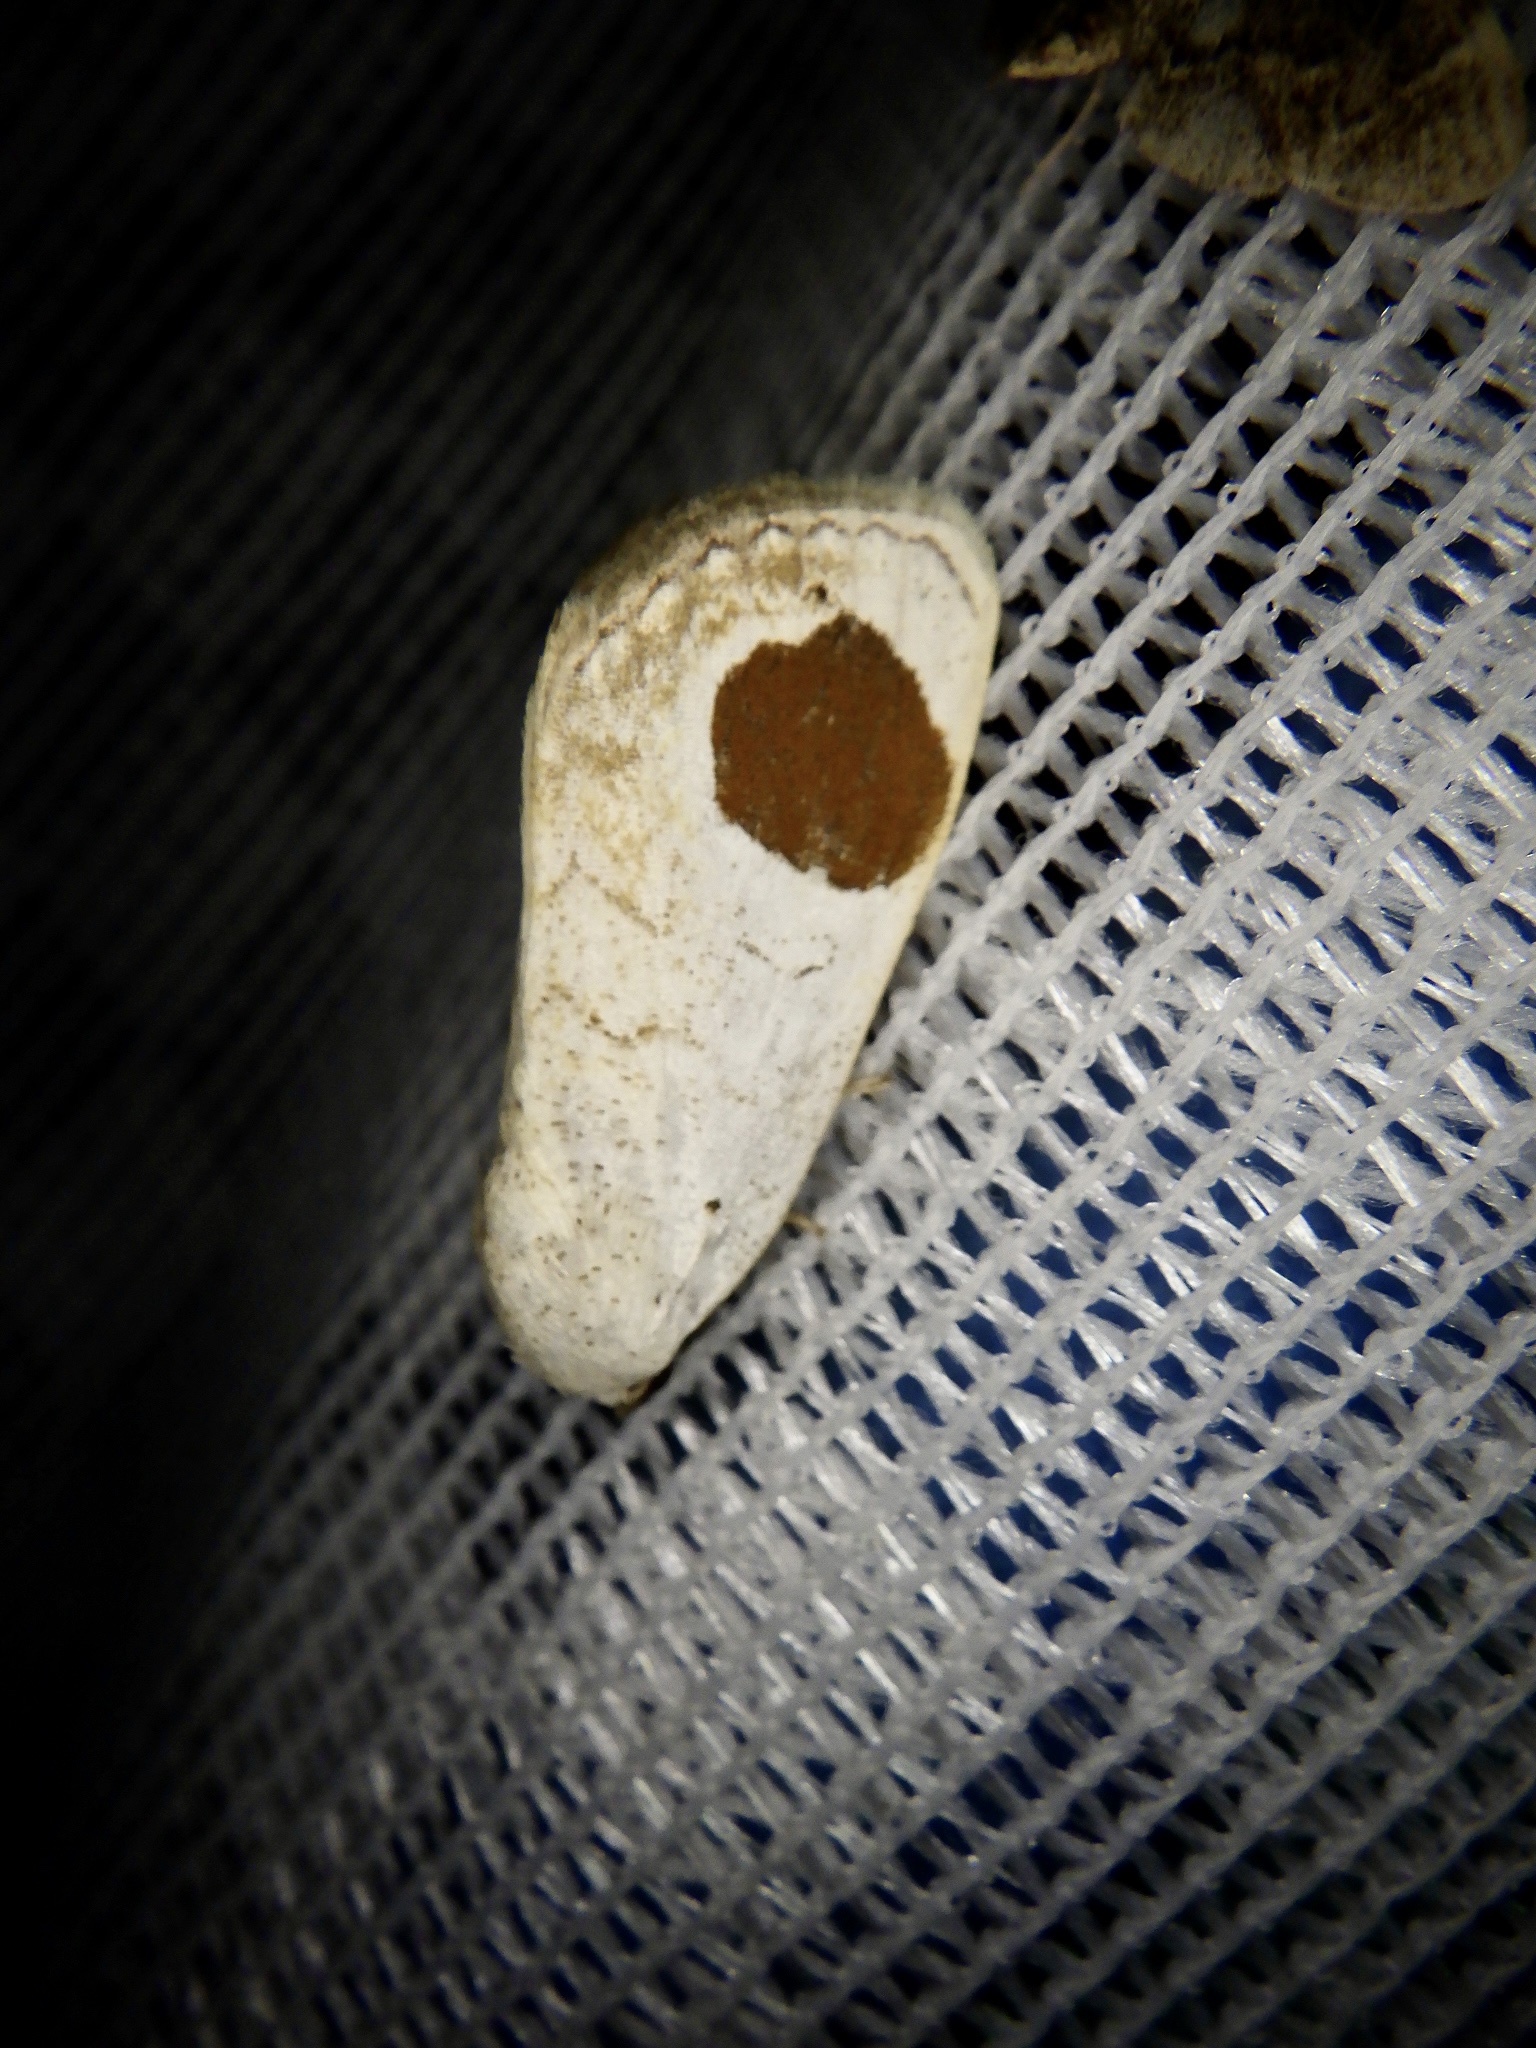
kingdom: Animalia
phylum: Arthropoda
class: Insecta
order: Lepidoptera
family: Noctuidae
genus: Sphragifera
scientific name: Sphragifera sigillata
